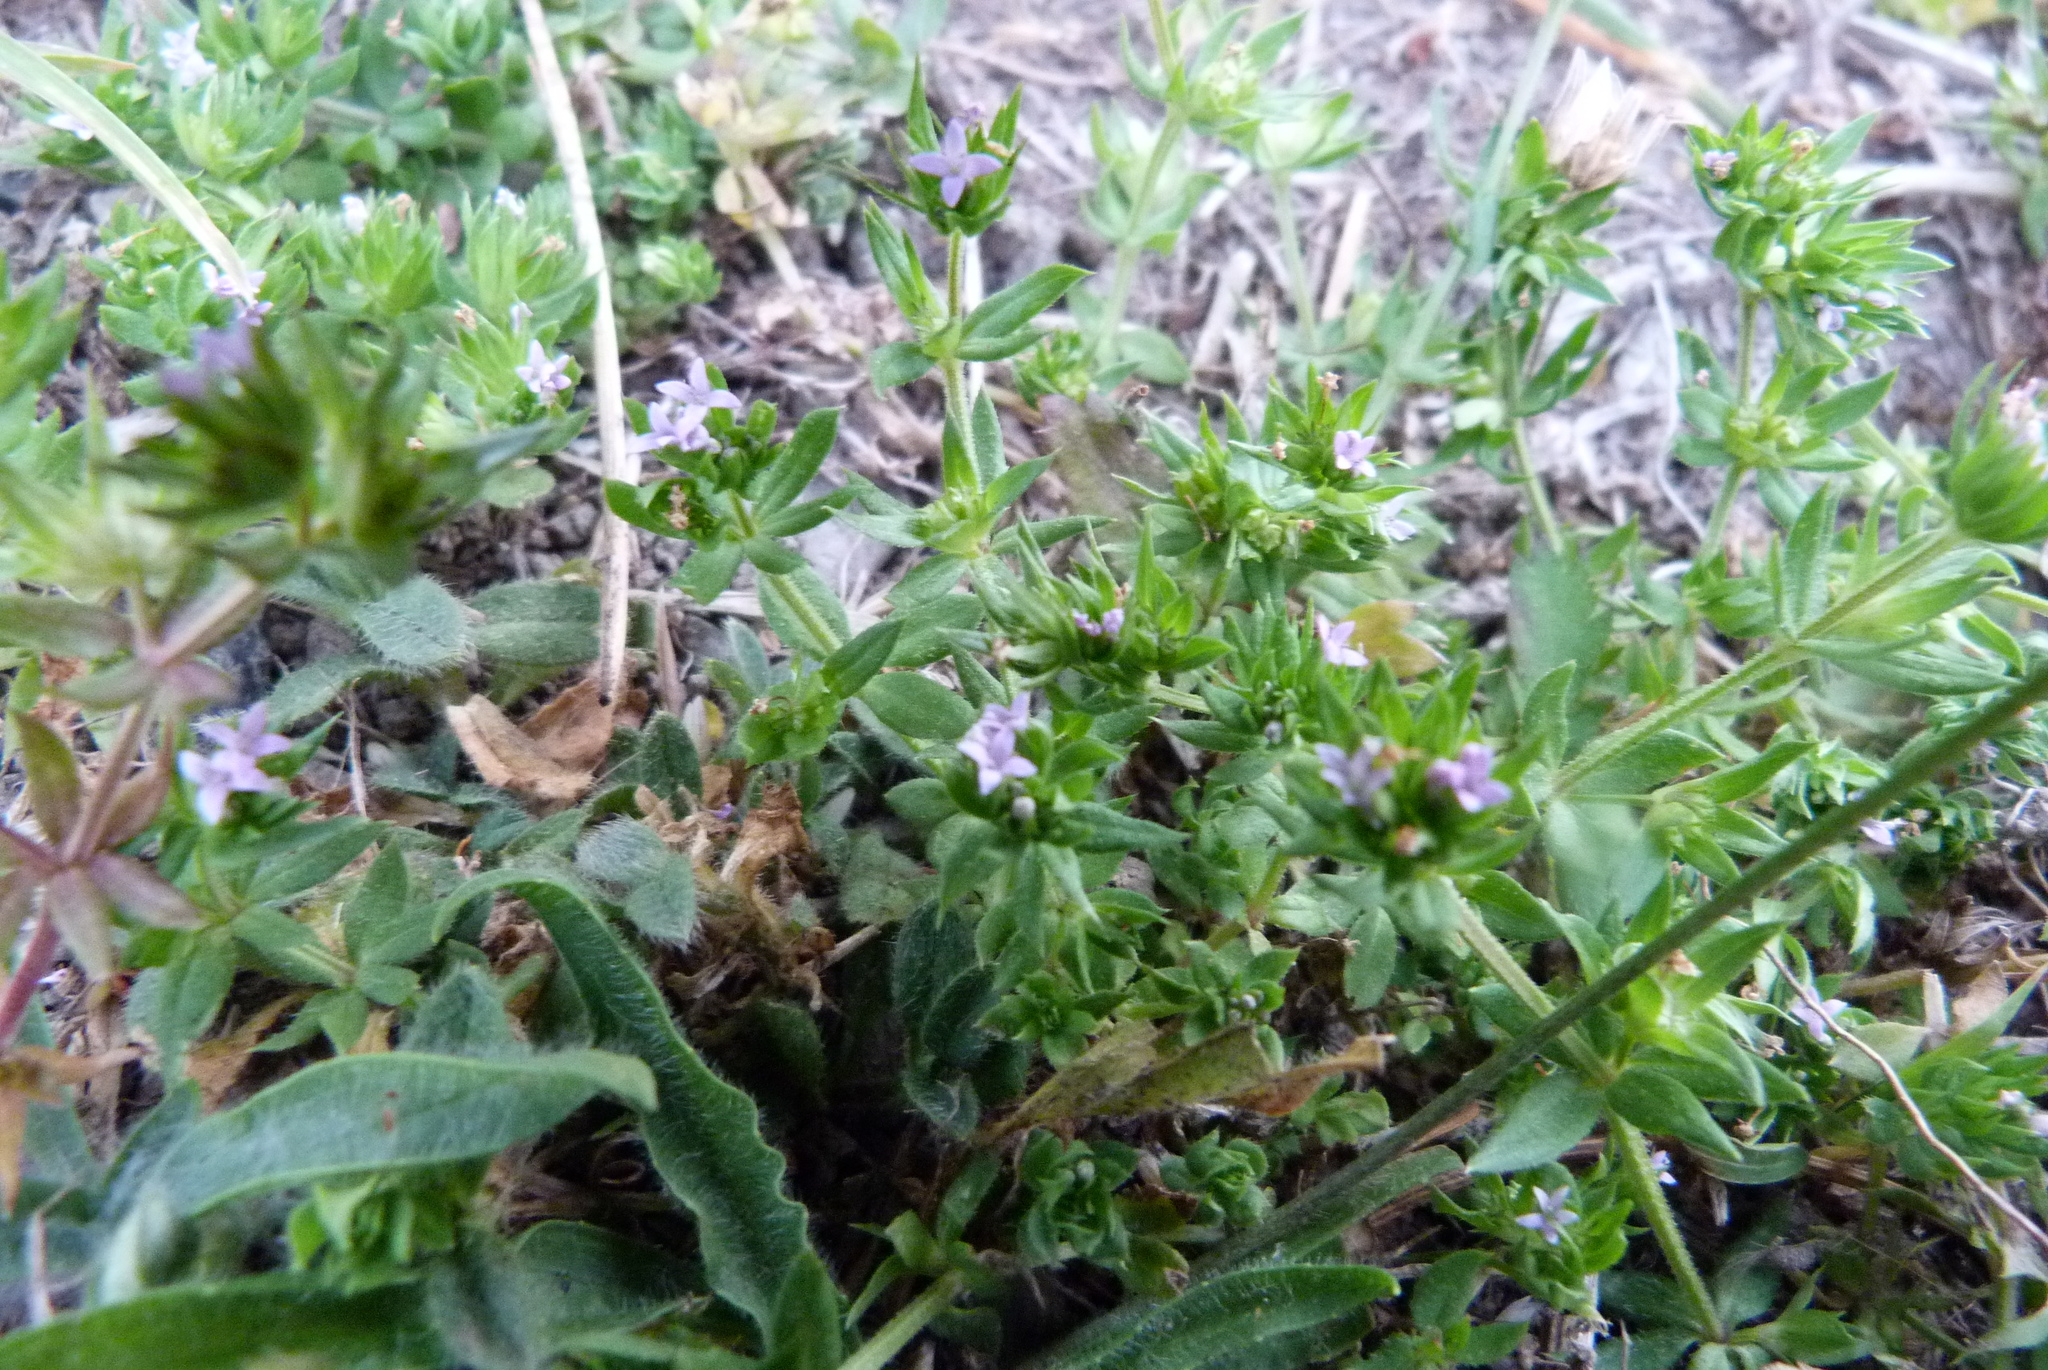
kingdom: Plantae
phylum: Tracheophyta
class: Magnoliopsida
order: Gentianales
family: Rubiaceae
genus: Sherardia
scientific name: Sherardia arvensis
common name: Field madder
